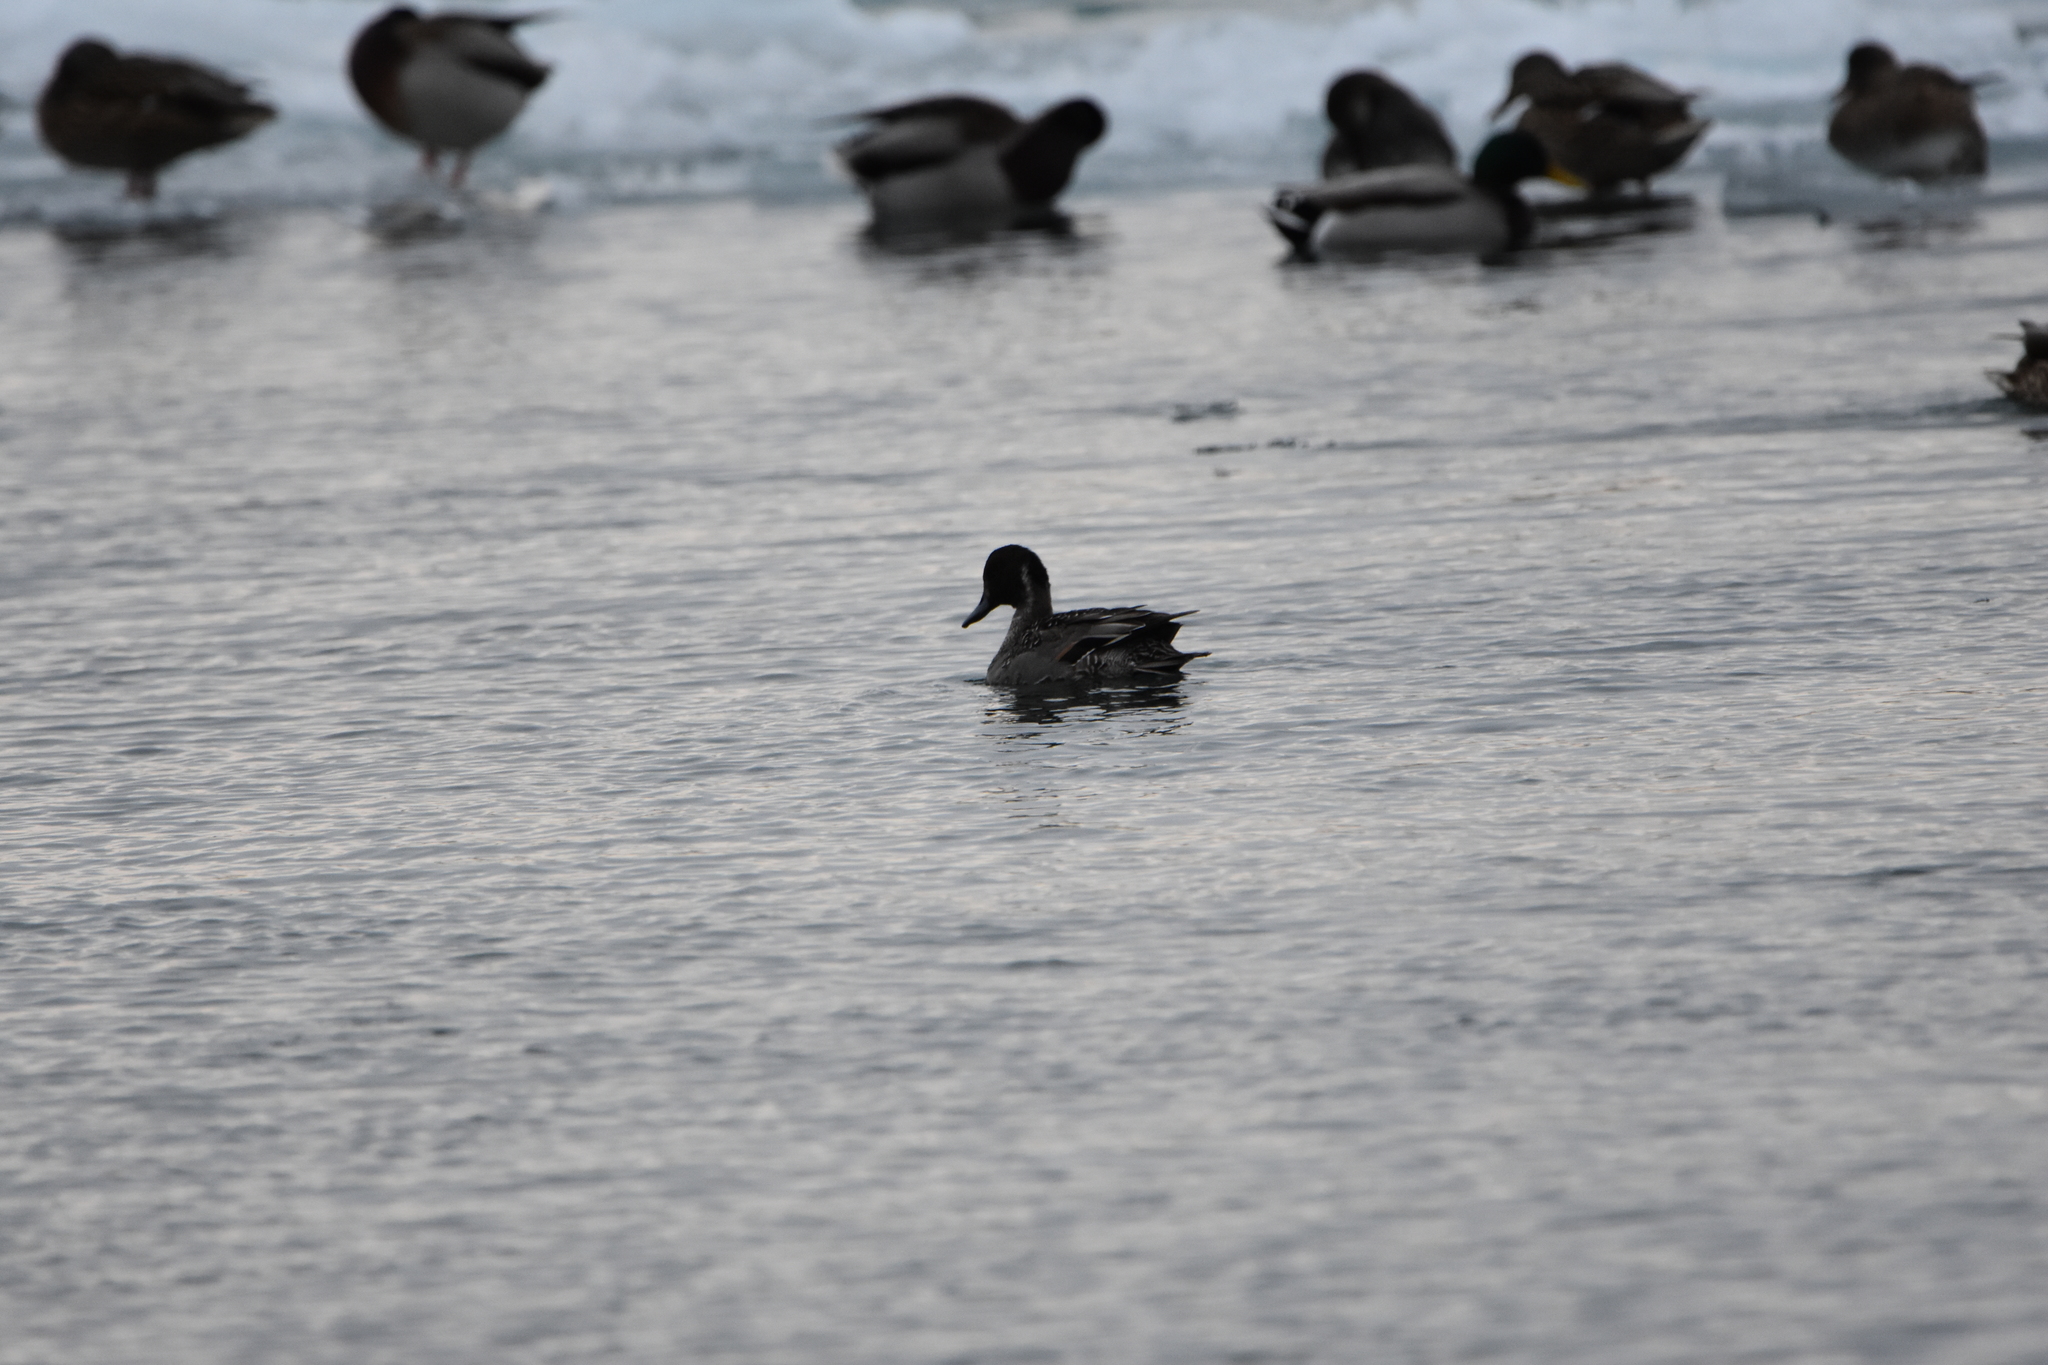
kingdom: Animalia
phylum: Chordata
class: Aves
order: Anseriformes
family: Anatidae
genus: Anas
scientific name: Anas acuta
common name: Northern pintail
